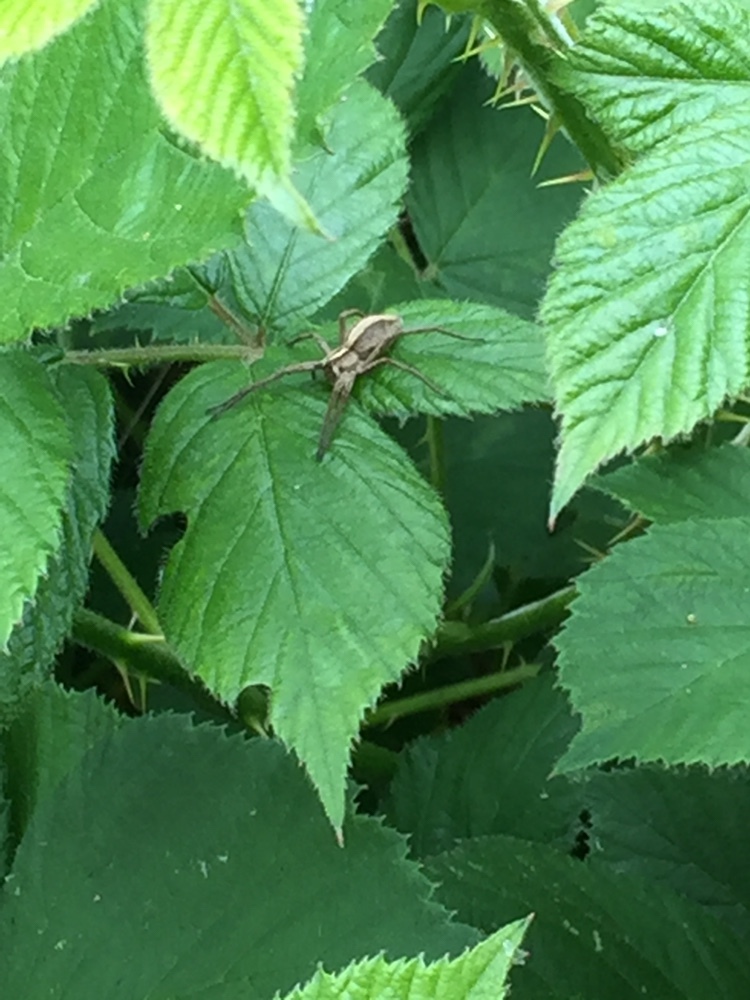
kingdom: Animalia
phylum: Arthropoda
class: Arachnida
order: Araneae
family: Pisauridae
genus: Pisaura
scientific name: Pisaura mirabilis
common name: Tent spider
